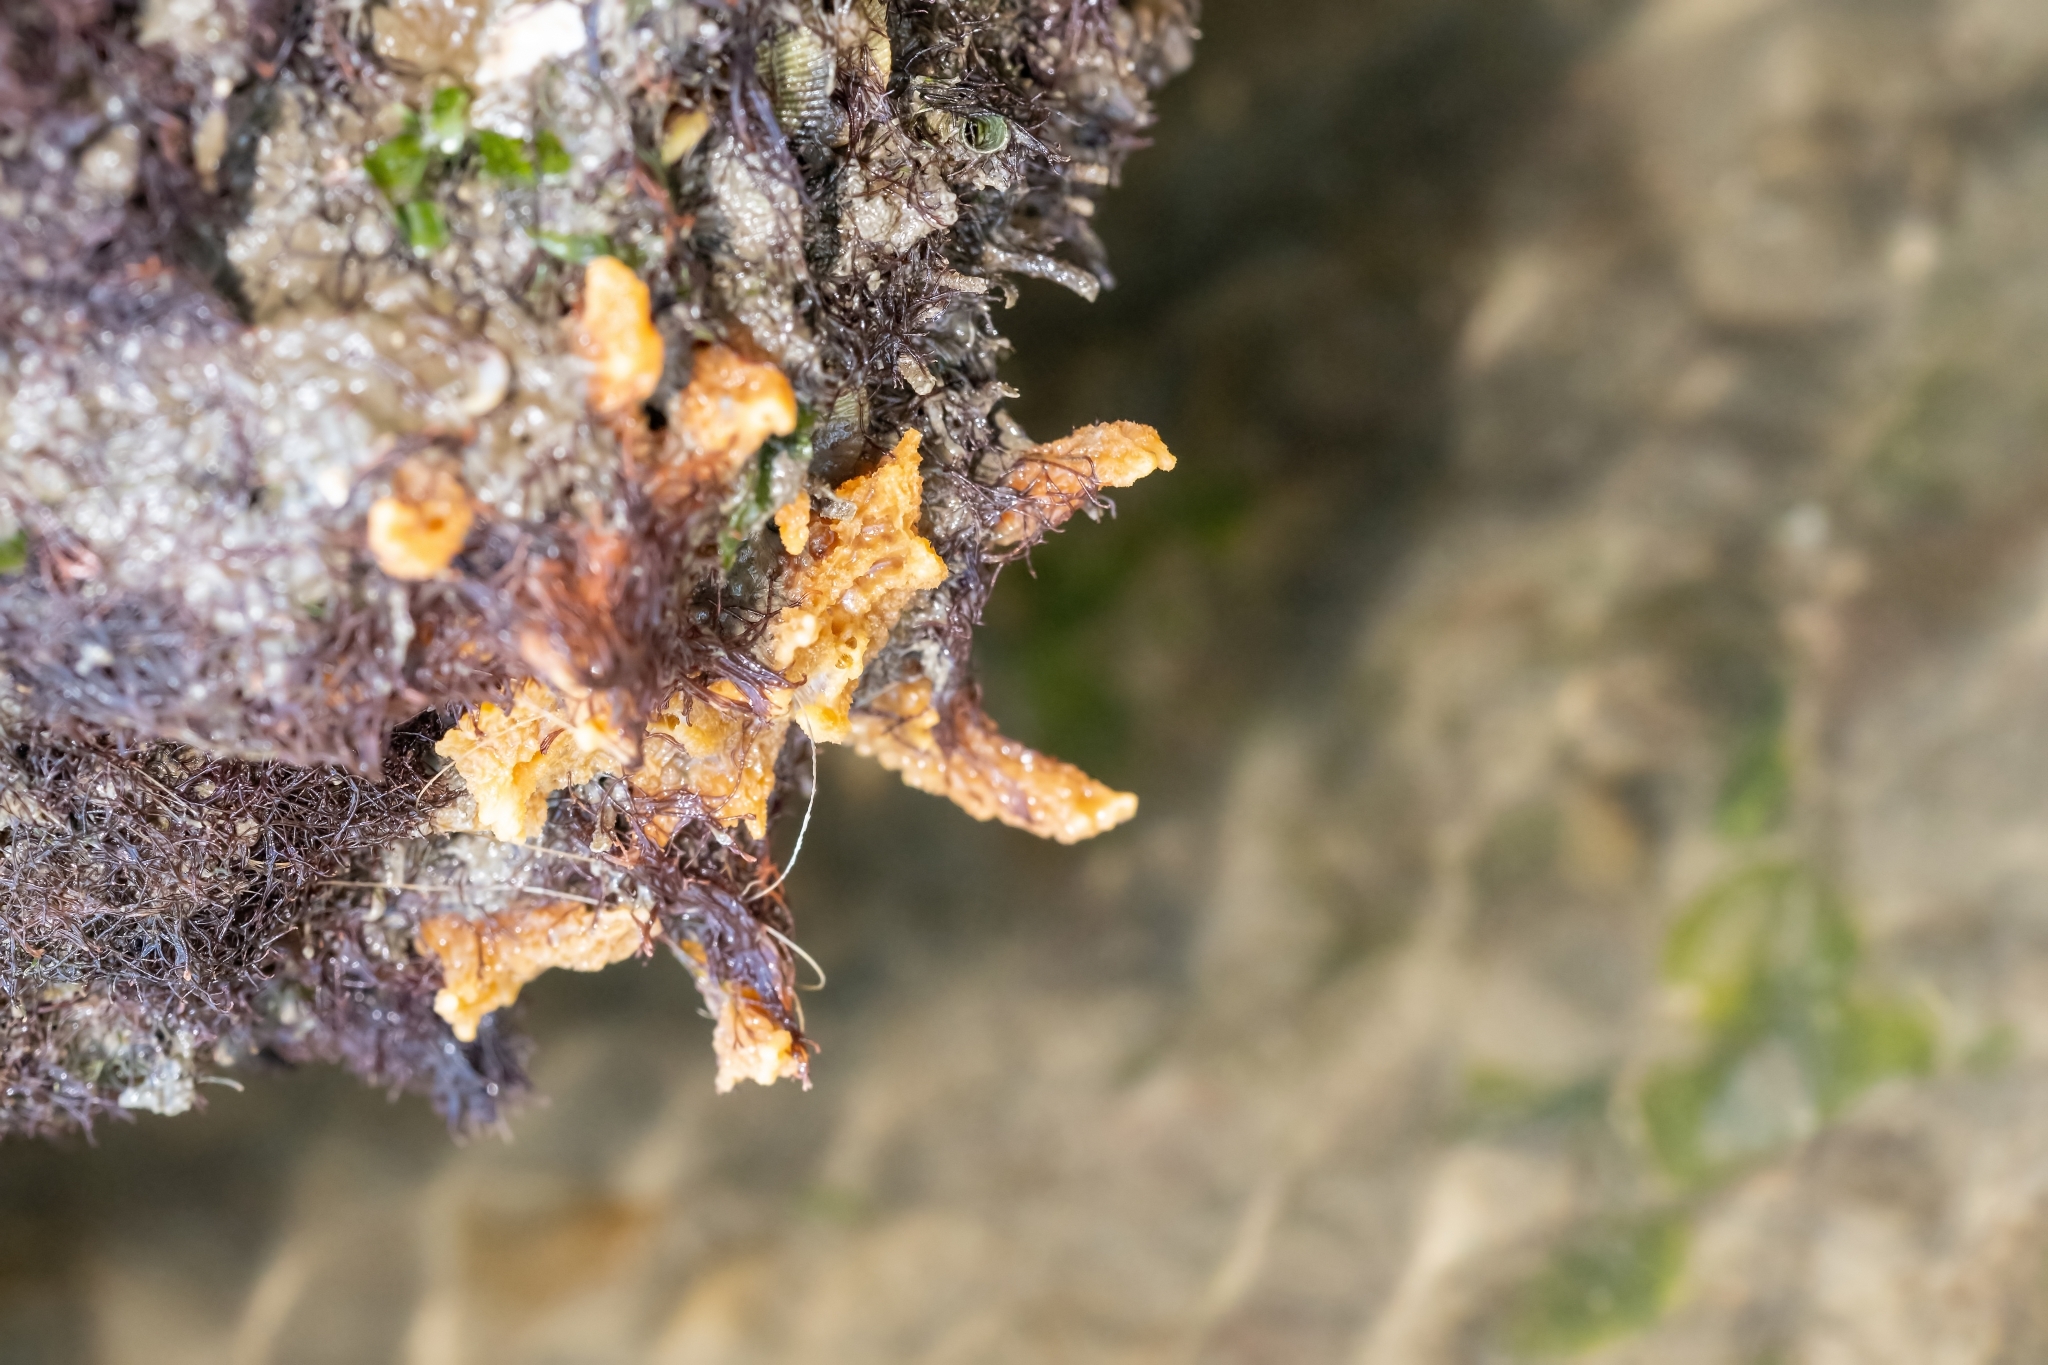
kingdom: Animalia
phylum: Porifera
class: Demospongiae
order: Suberitida
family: Halichondriidae
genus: Hymeniacidon
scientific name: Hymeniacidon heliophila
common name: Diurnal horny sponge
